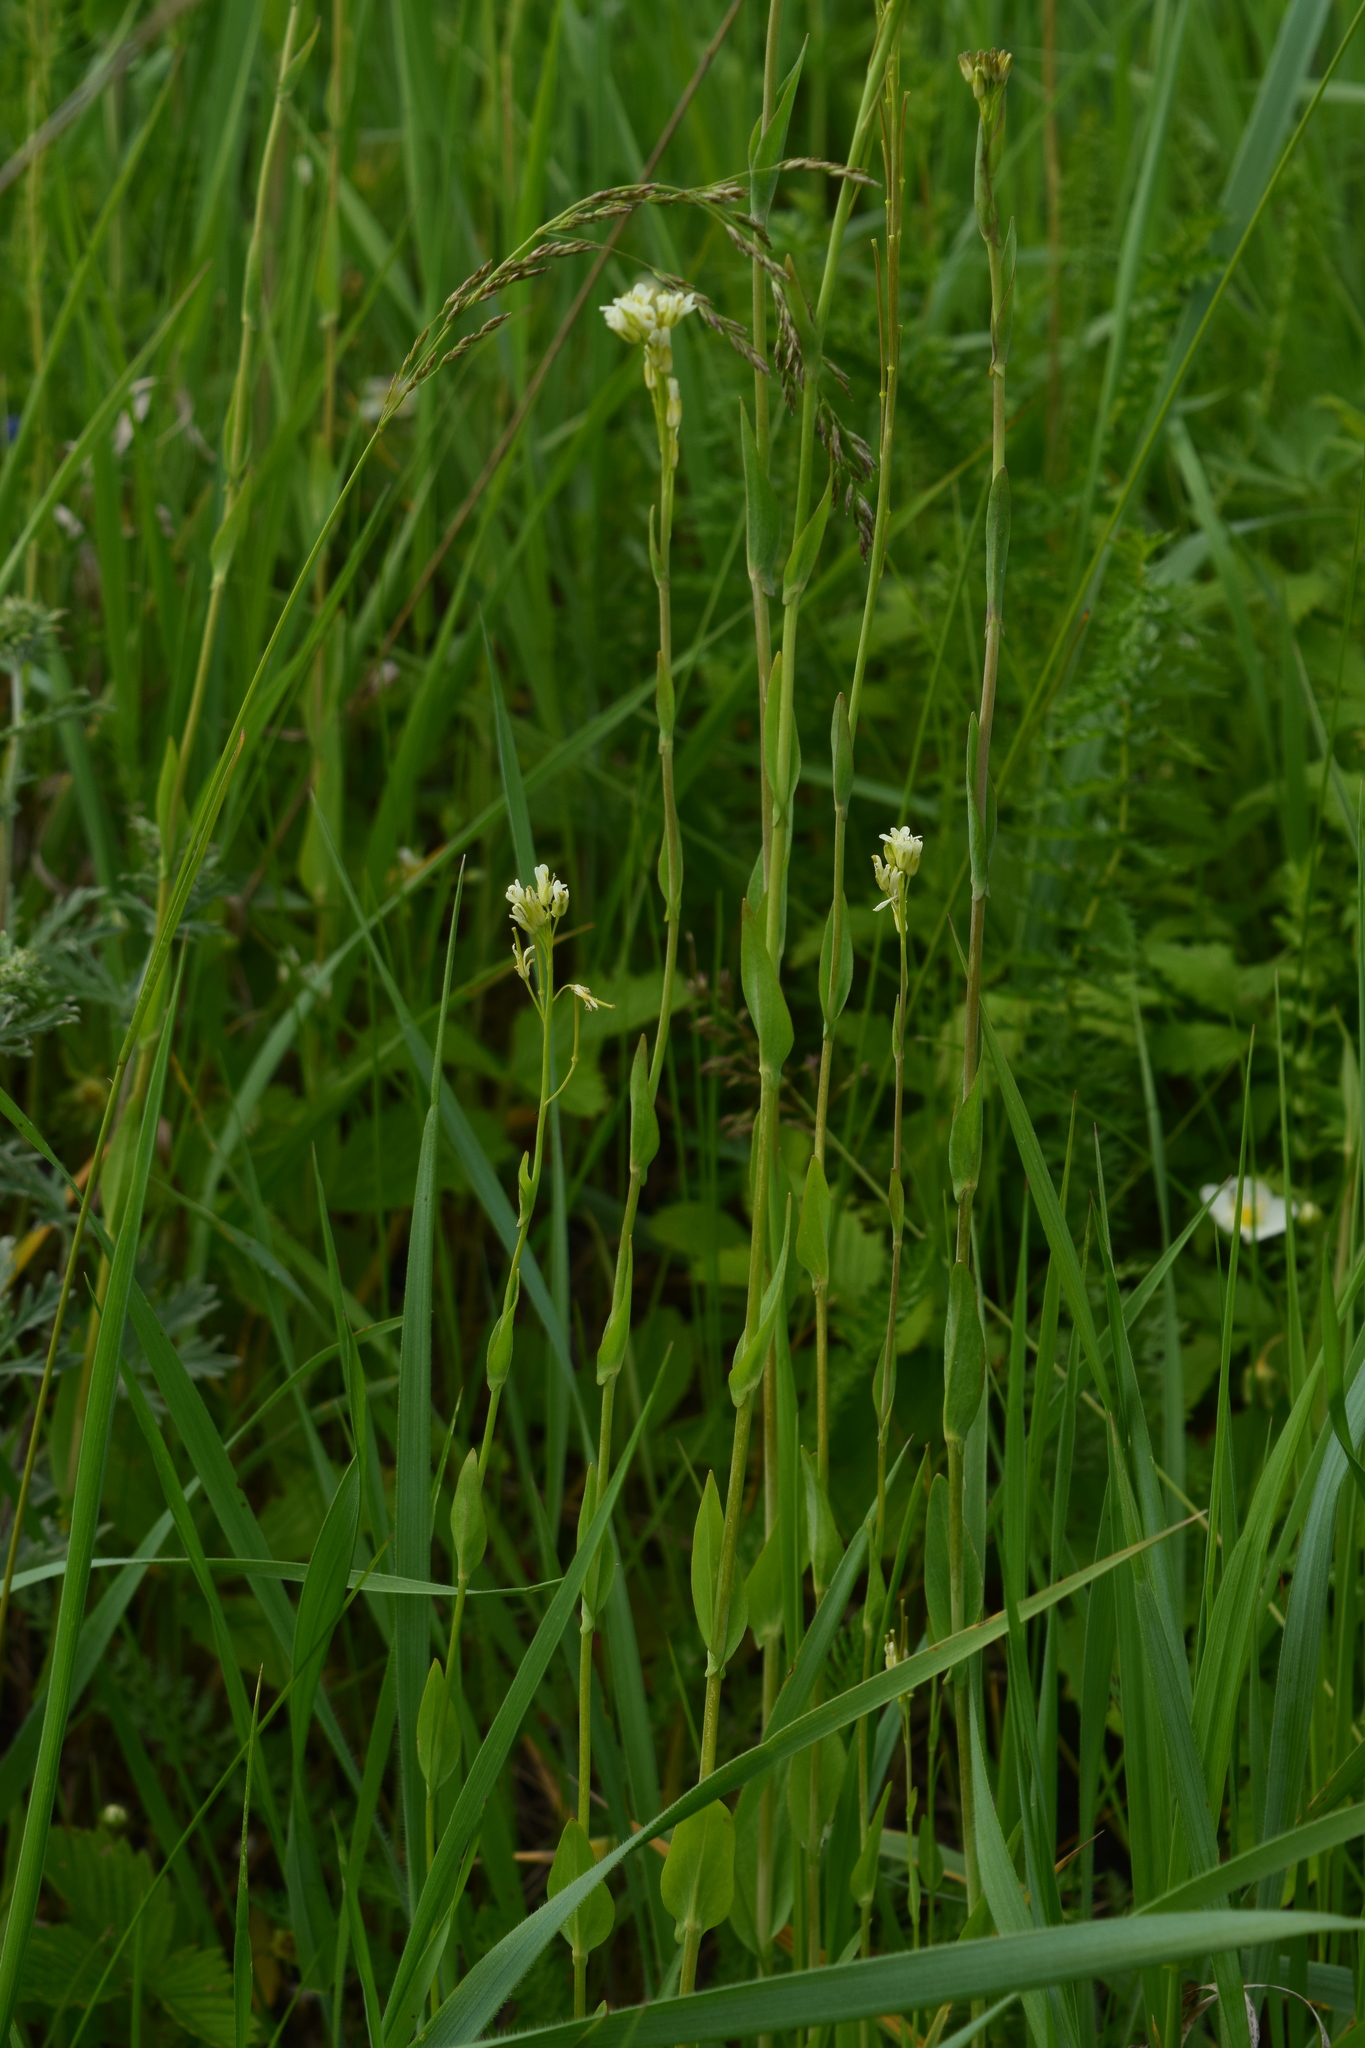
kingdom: Plantae
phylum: Tracheophyta
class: Magnoliopsida
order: Brassicales
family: Brassicaceae
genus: Turritis
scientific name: Turritis glabra
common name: Tower rockcress
